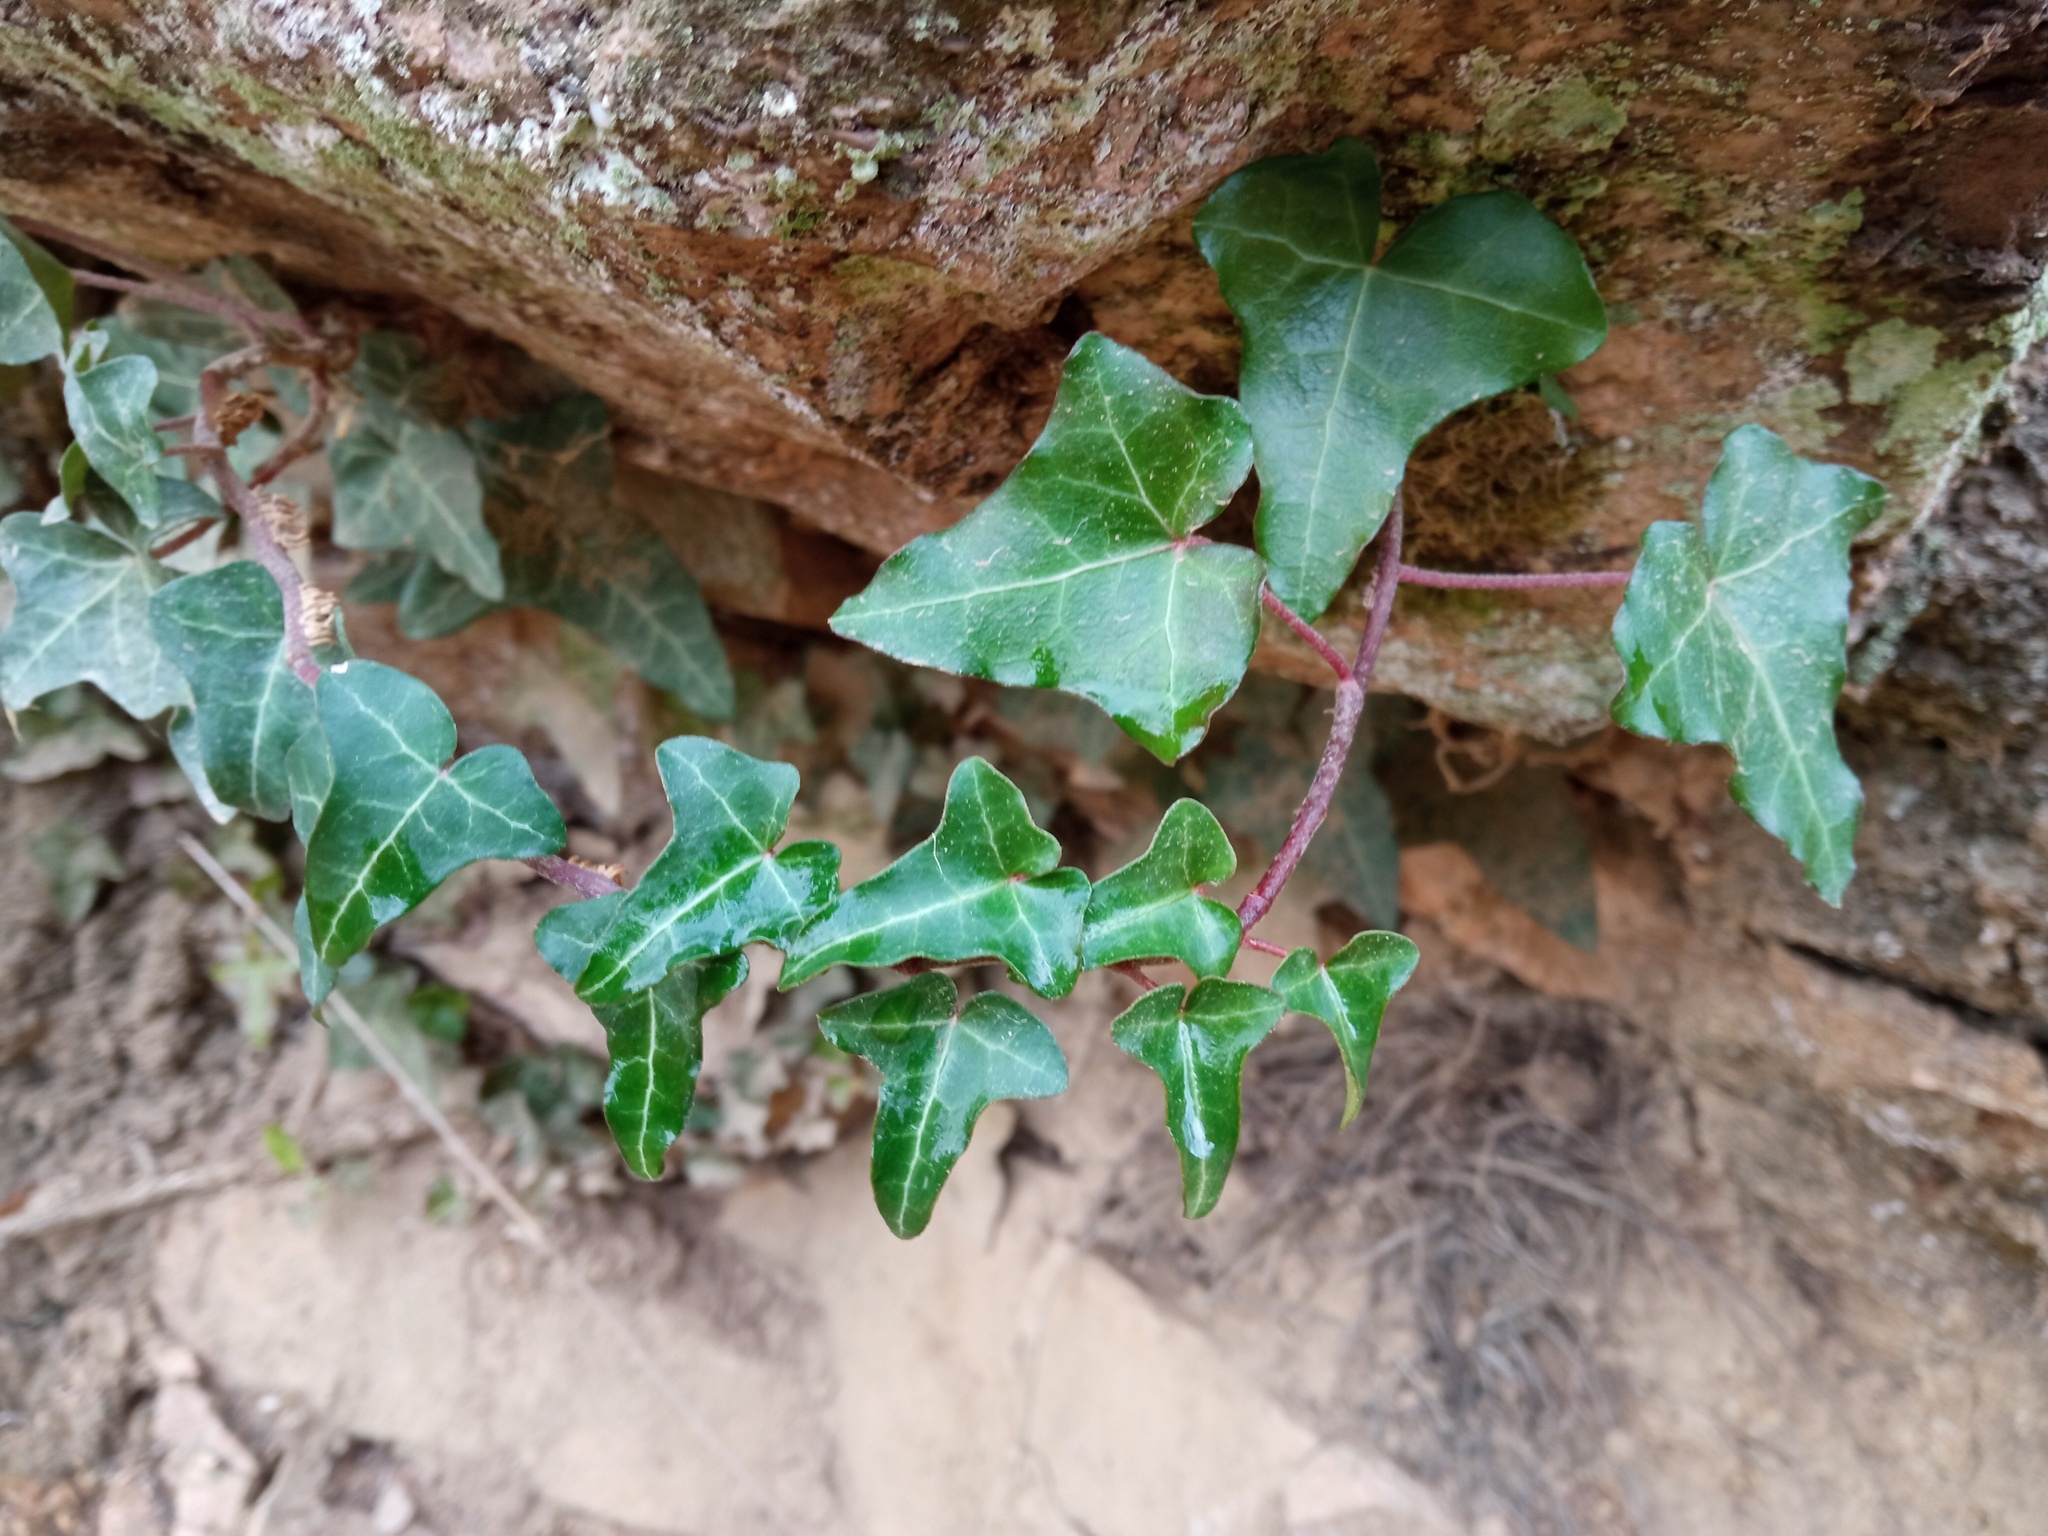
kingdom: Plantae
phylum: Tracheophyta
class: Magnoliopsida
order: Apiales
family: Araliaceae
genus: Hedera
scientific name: Hedera helix
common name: Ivy
